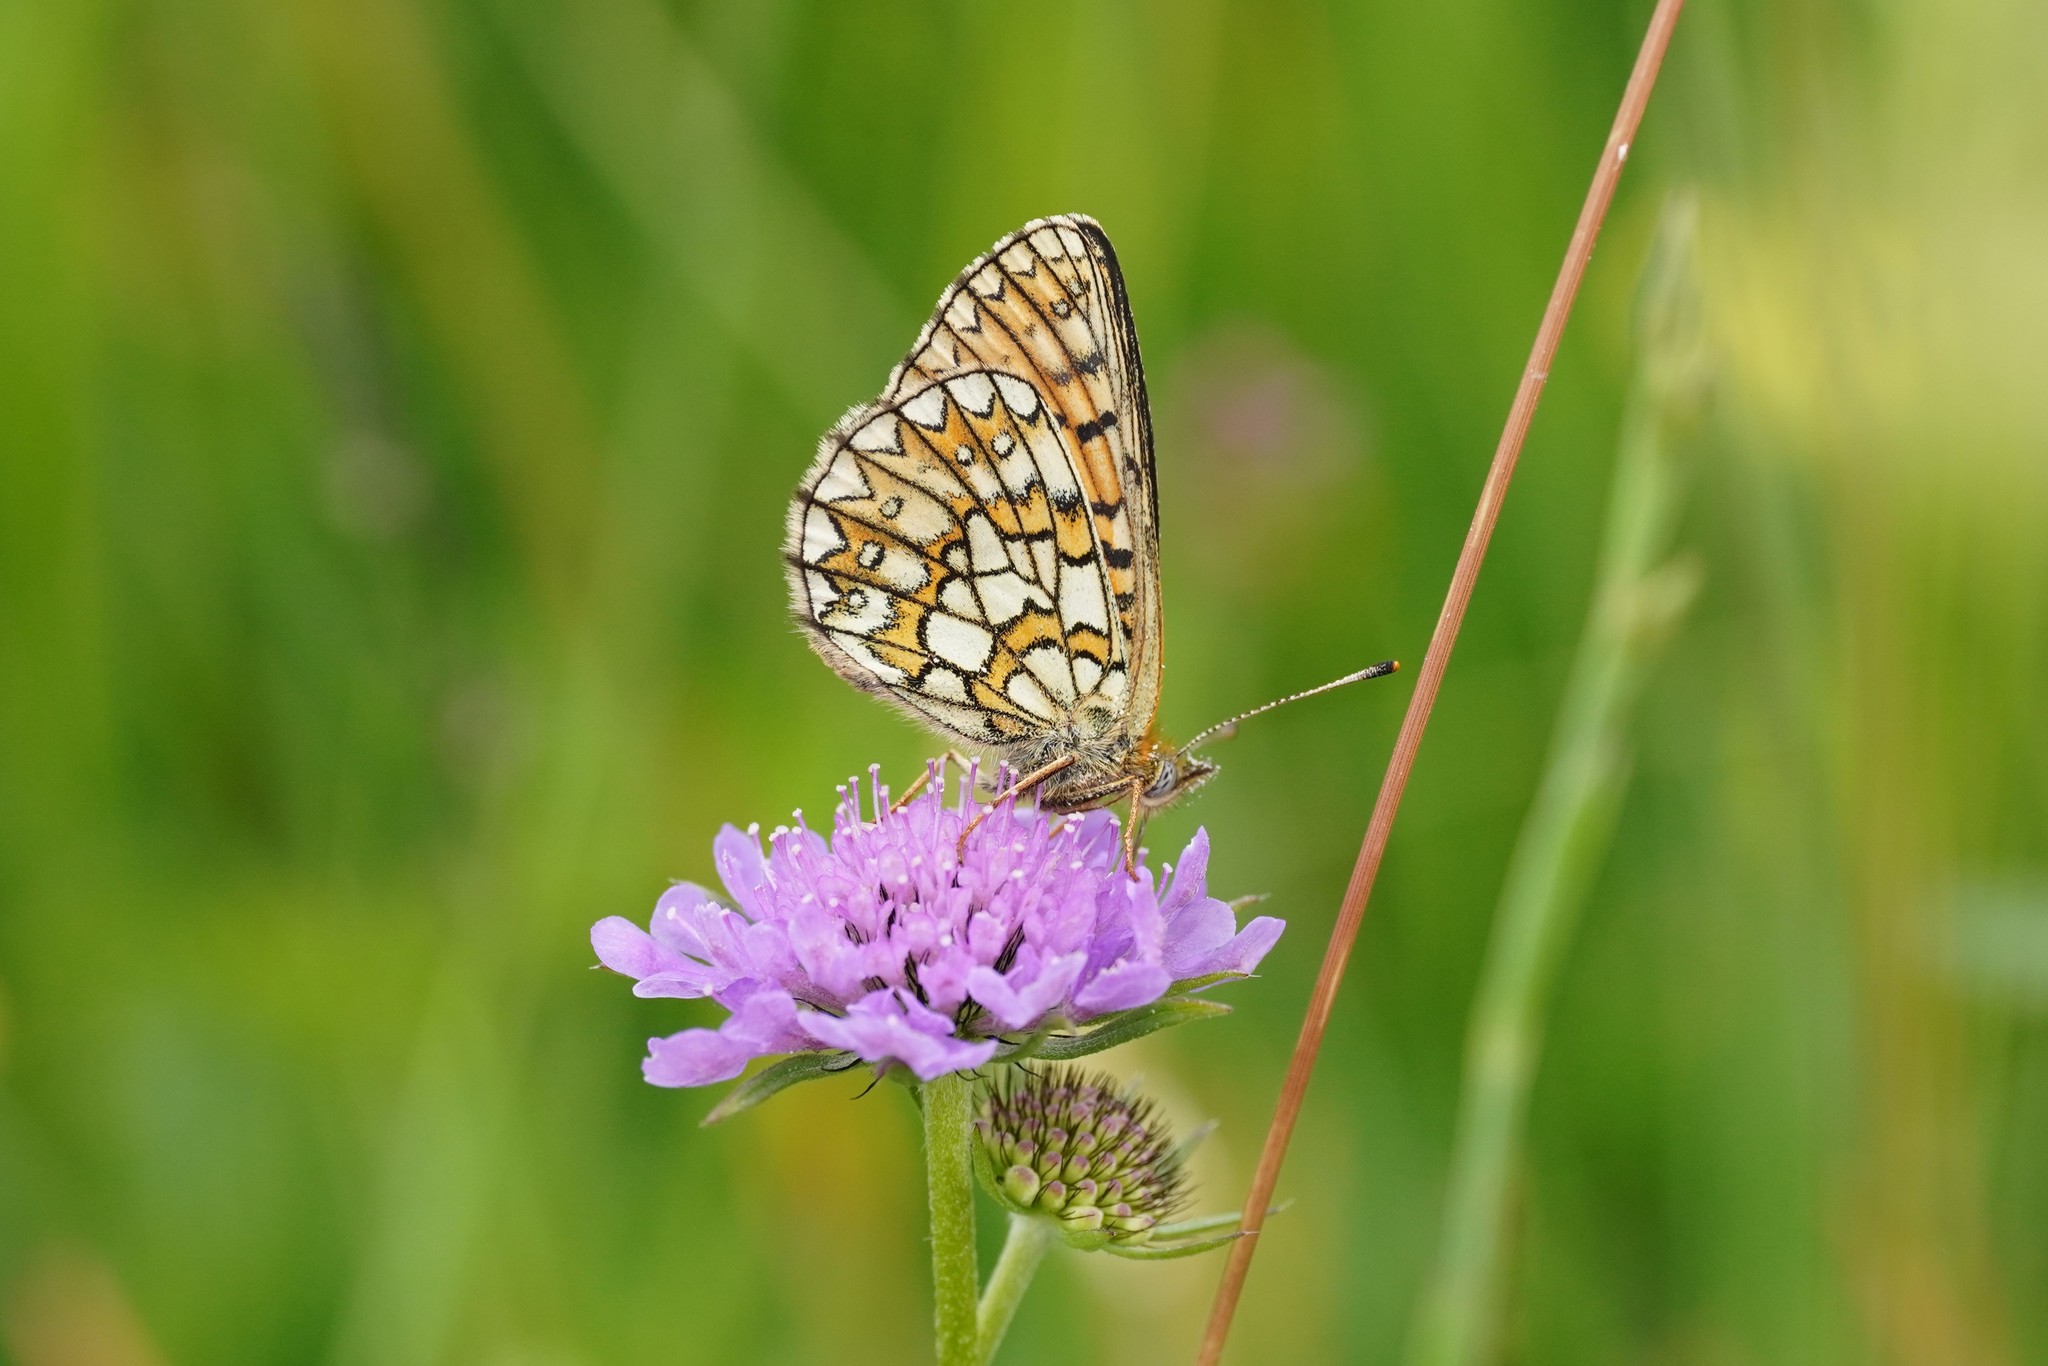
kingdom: Animalia
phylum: Arthropoda
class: Insecta
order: Lepidoptera
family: Nymphalidae
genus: Boloria
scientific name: Boloria eunomia
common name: Bog fritillary
